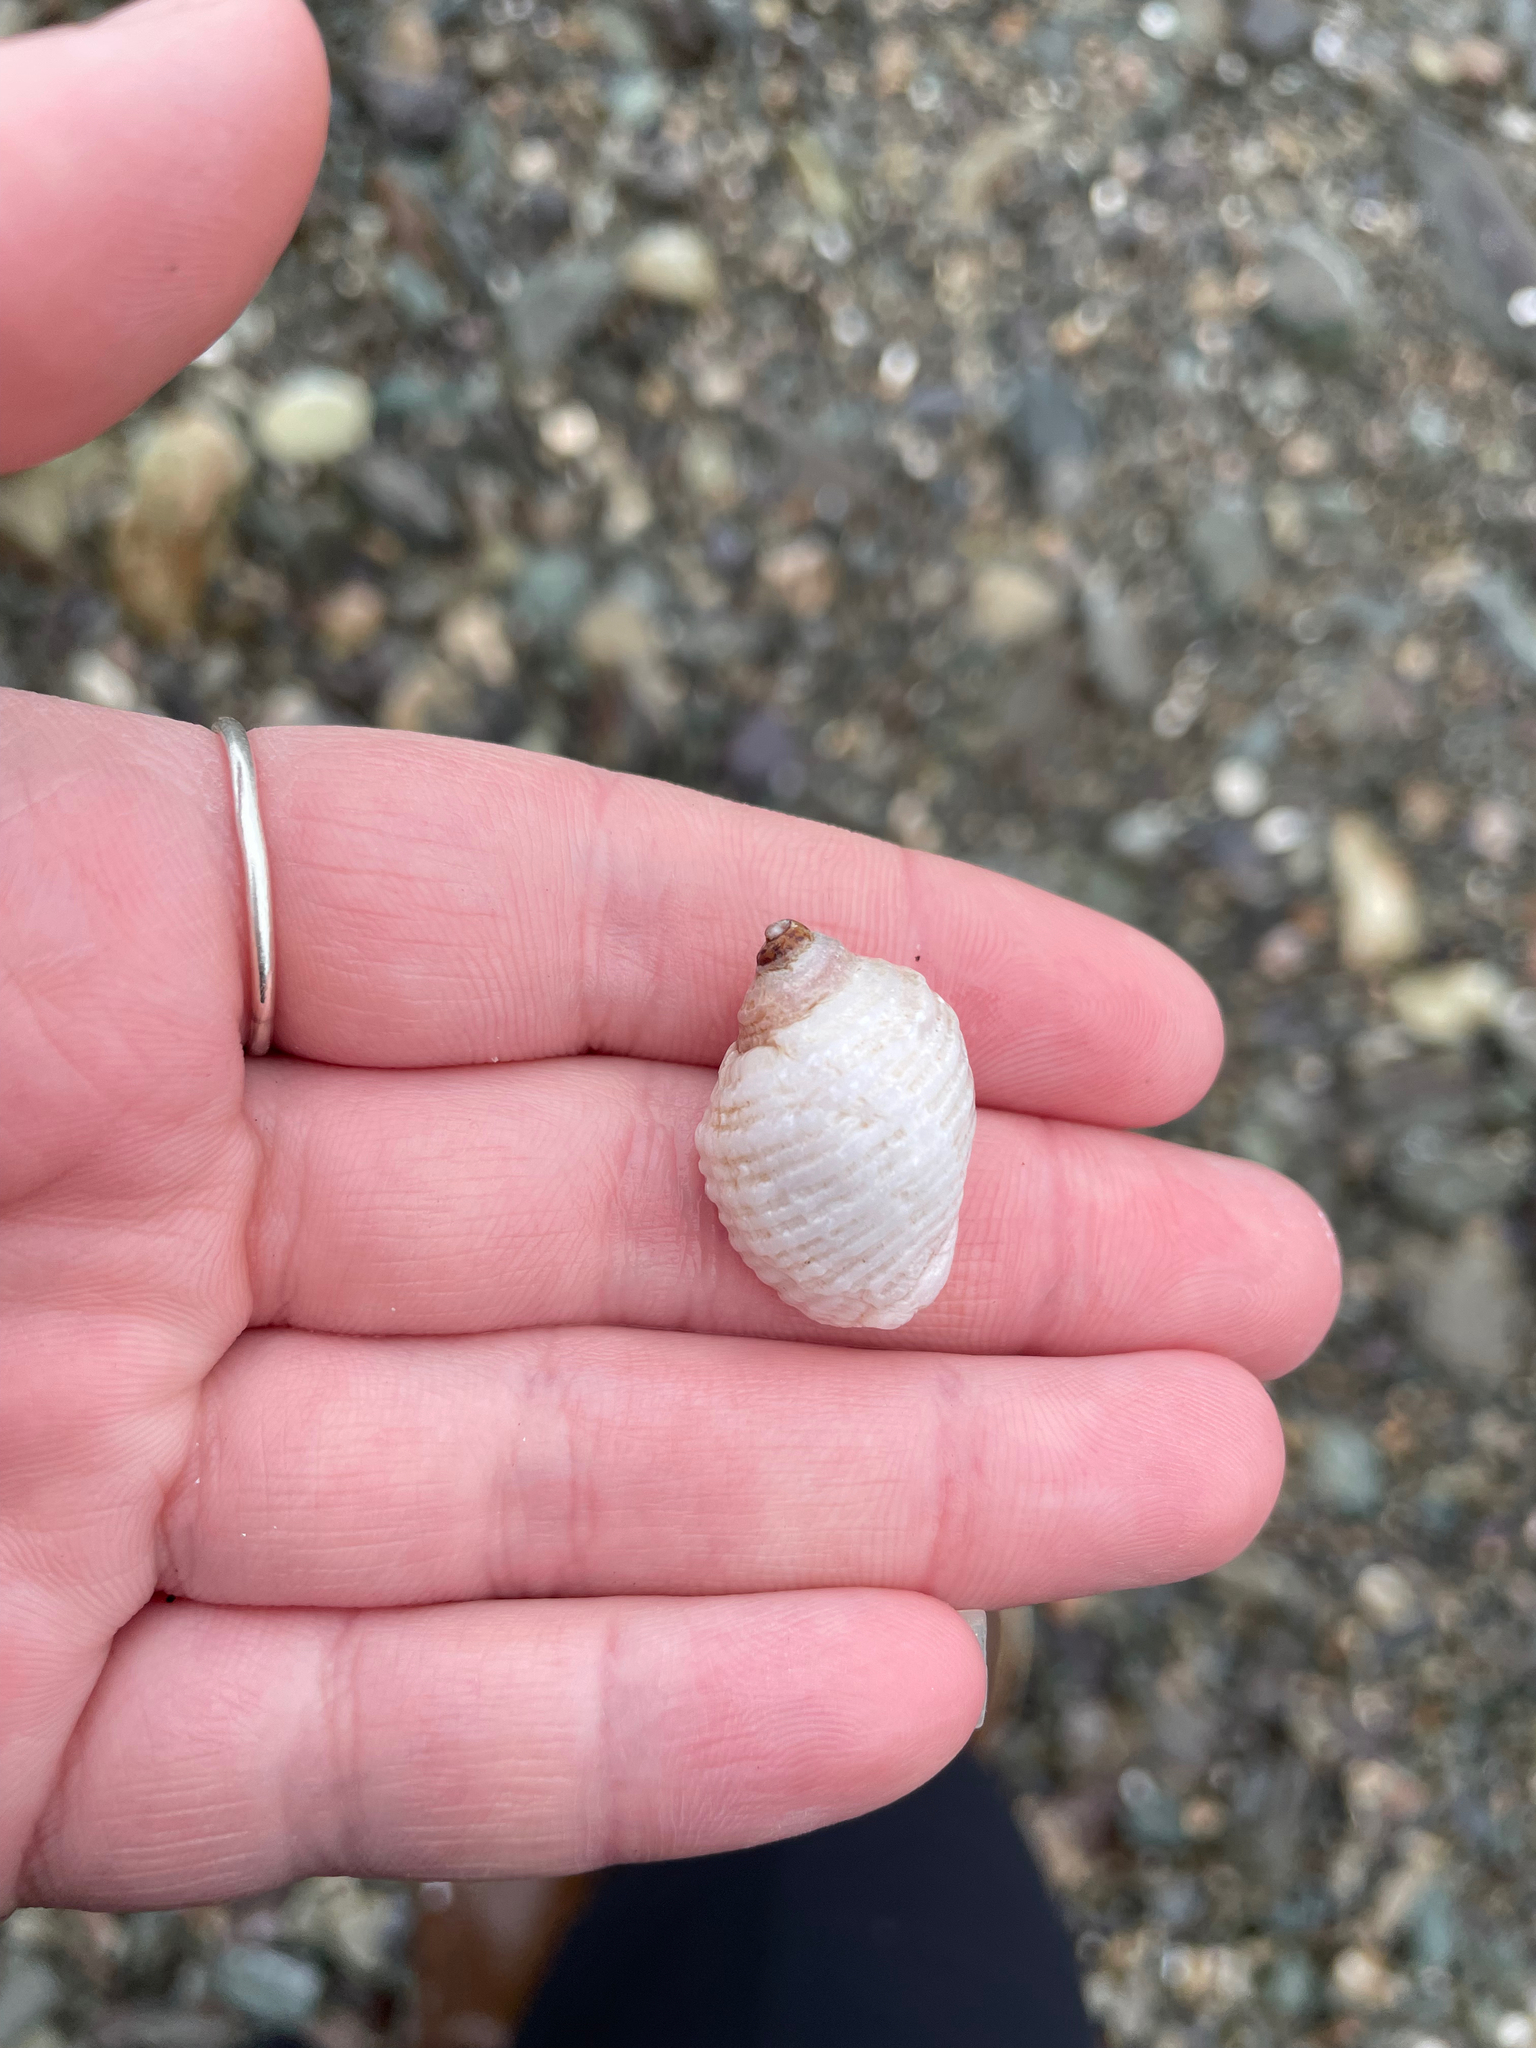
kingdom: Animalia
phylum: Mollusca
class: Gastropoda
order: Neogastropoda
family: Muricidae
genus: Nucella
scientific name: Nucella lapillus
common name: Dog whelk
